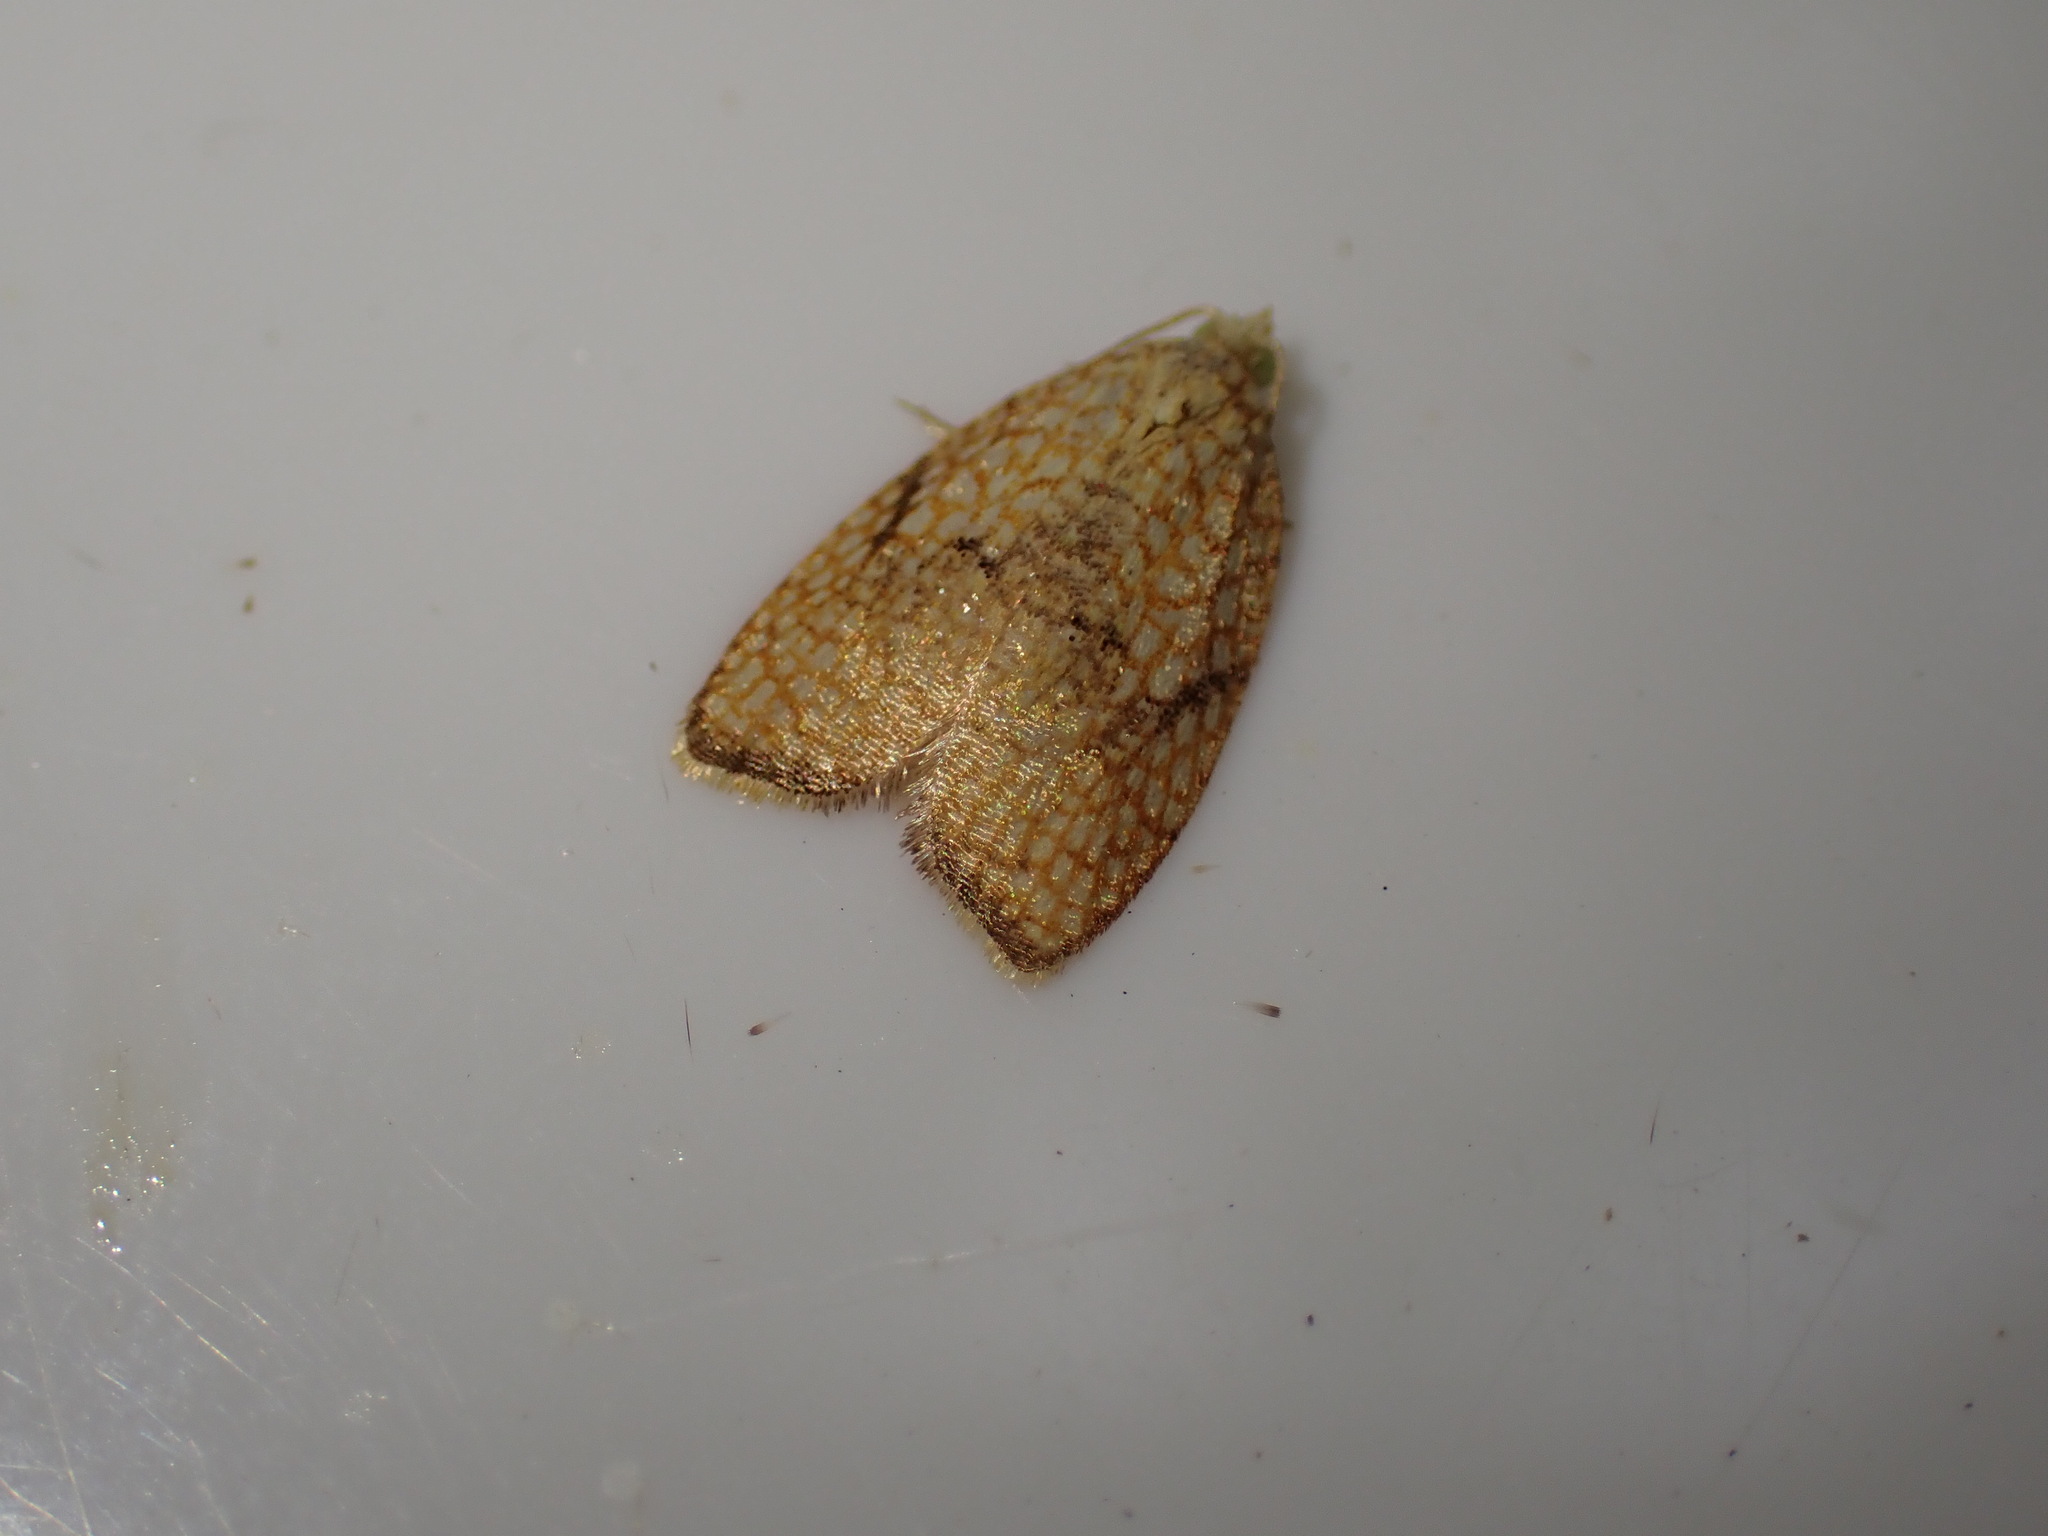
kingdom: Animalia
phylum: Arthropoda
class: Insecta
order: Lepidoptera
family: Tortricidae
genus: Acleris
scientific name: Acleris forsskaleana
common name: Maple button
